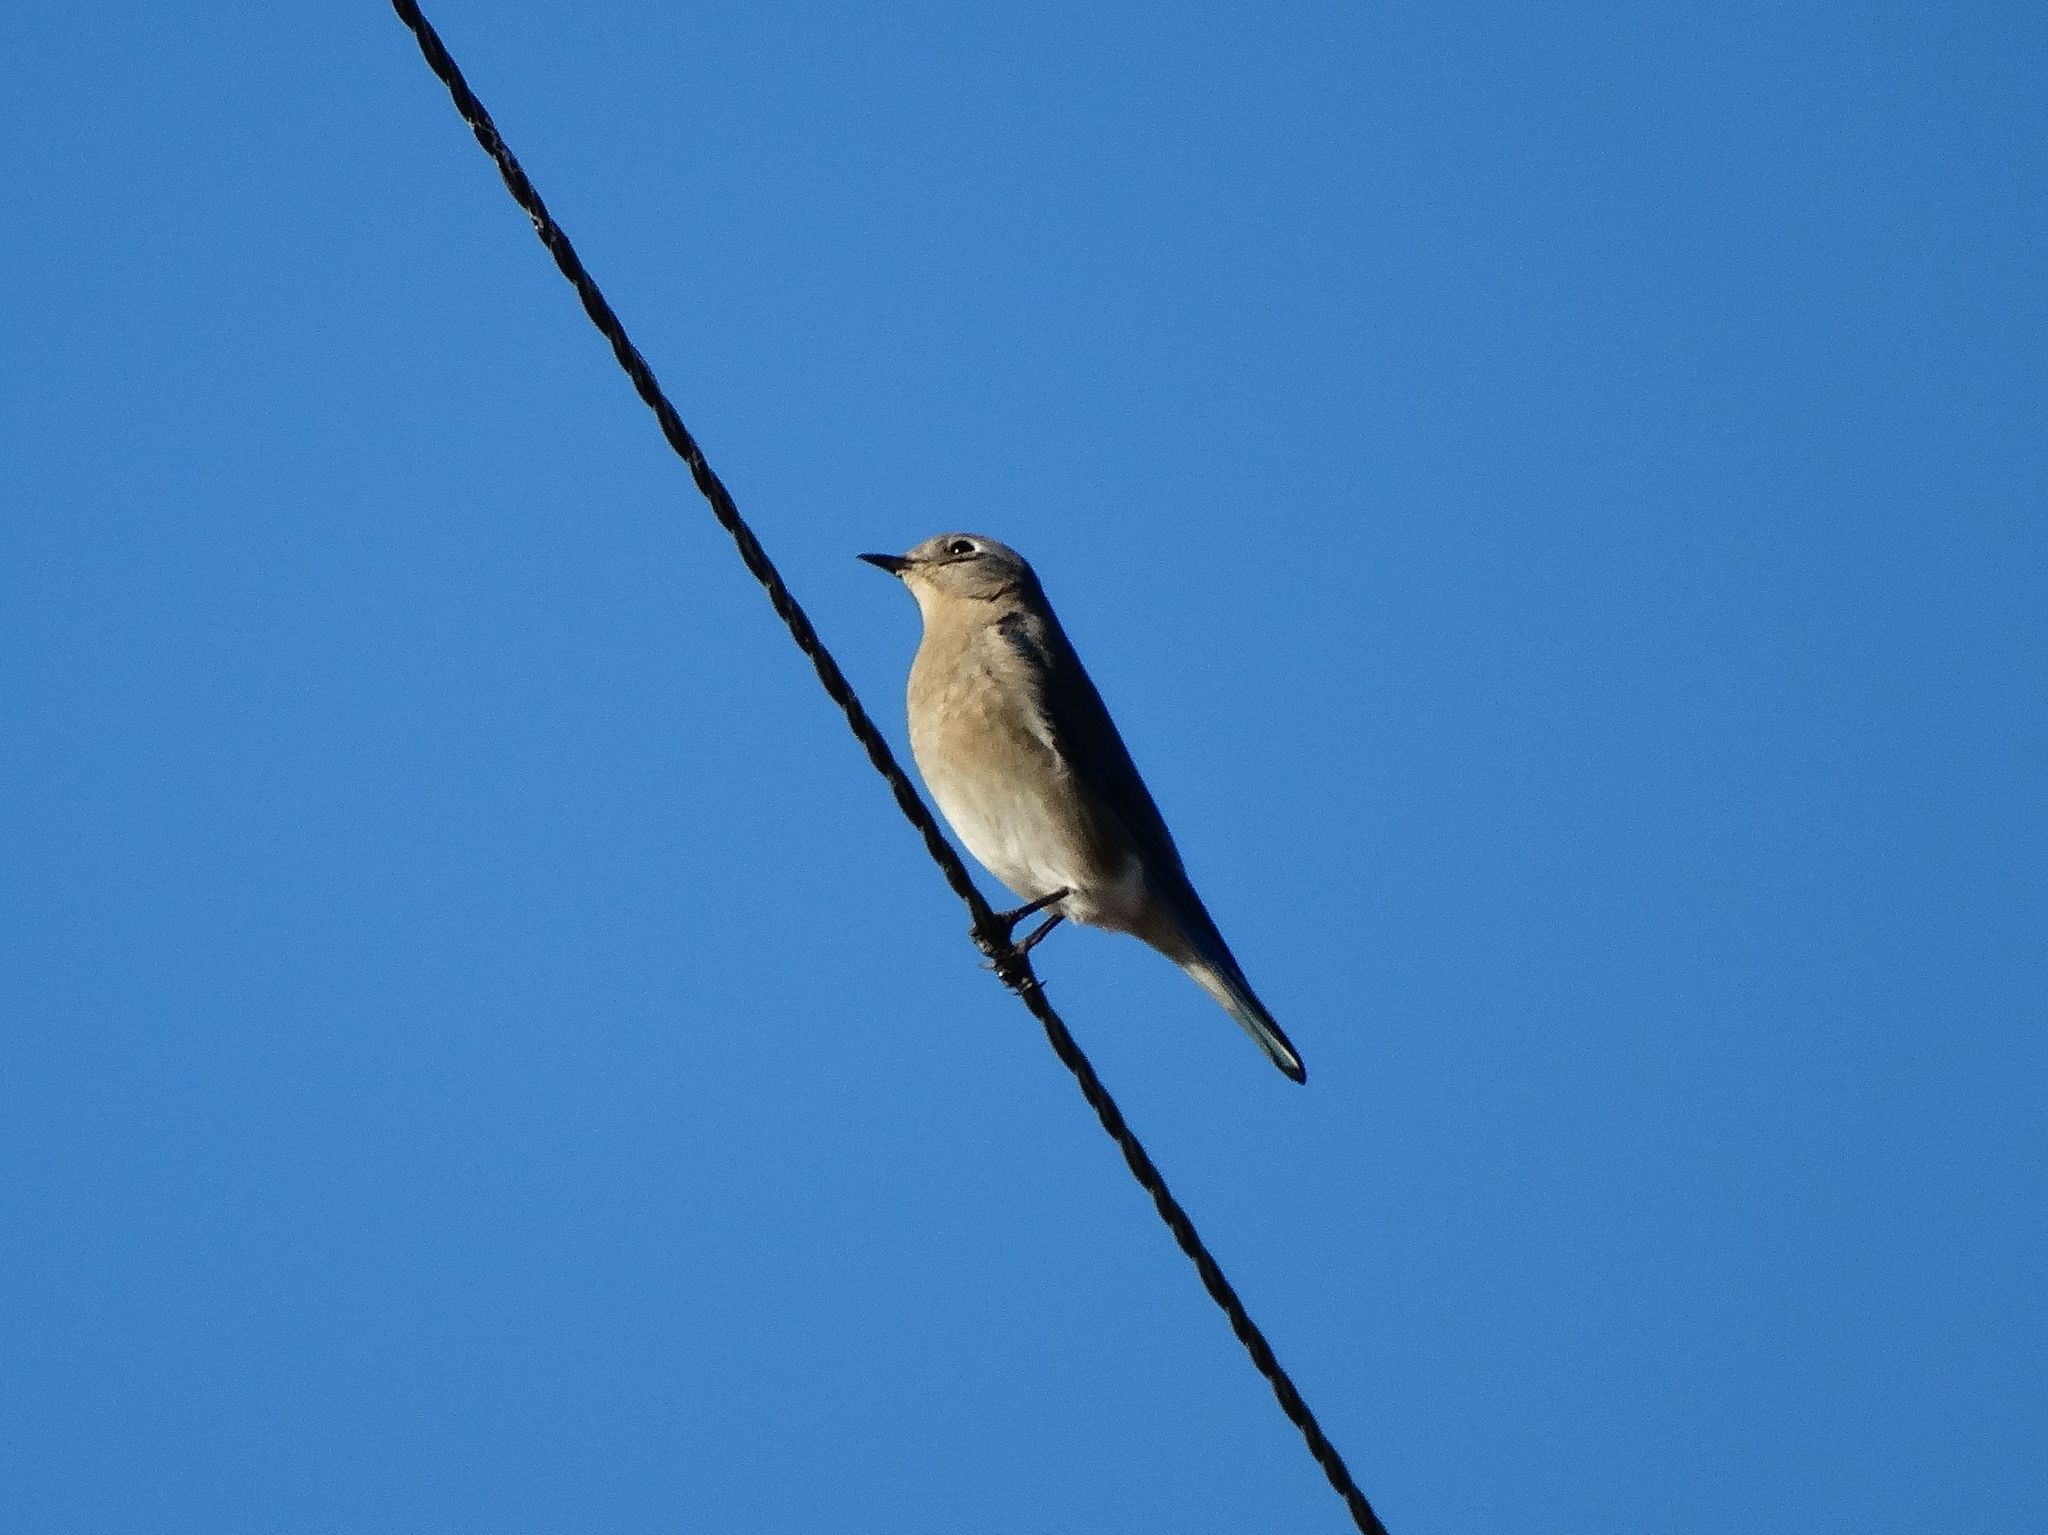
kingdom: Animalia
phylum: Chordata
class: Aves
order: Passeriformes
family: Turdidae
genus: Sialia
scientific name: Sialia currucoides
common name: Mountain bluebird
